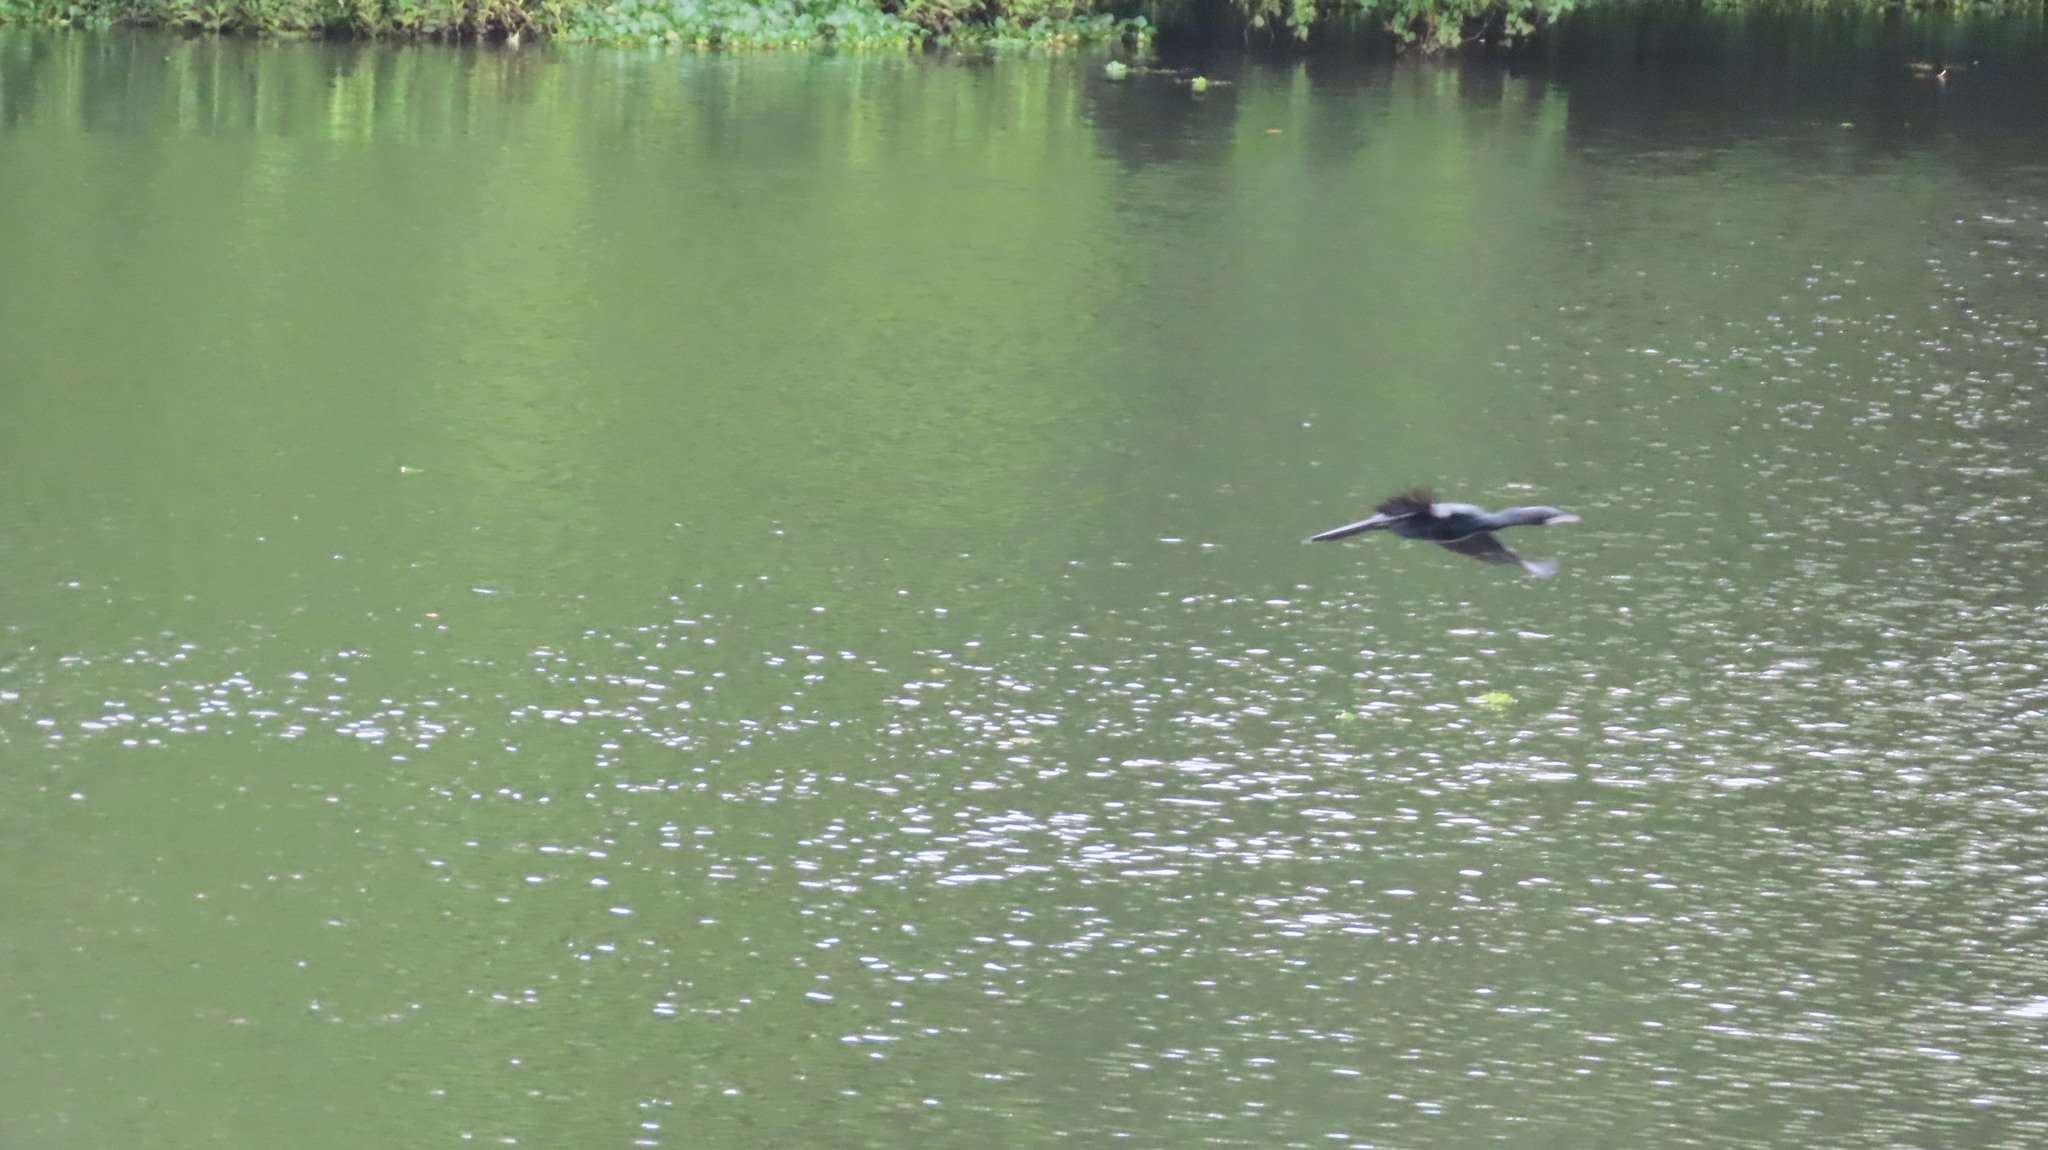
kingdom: Animalia
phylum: Chordata
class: Aves
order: Suliformes
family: Phalacrocoracidae
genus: Microcarbo
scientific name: Microcarbo niger
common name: Little cormorant
